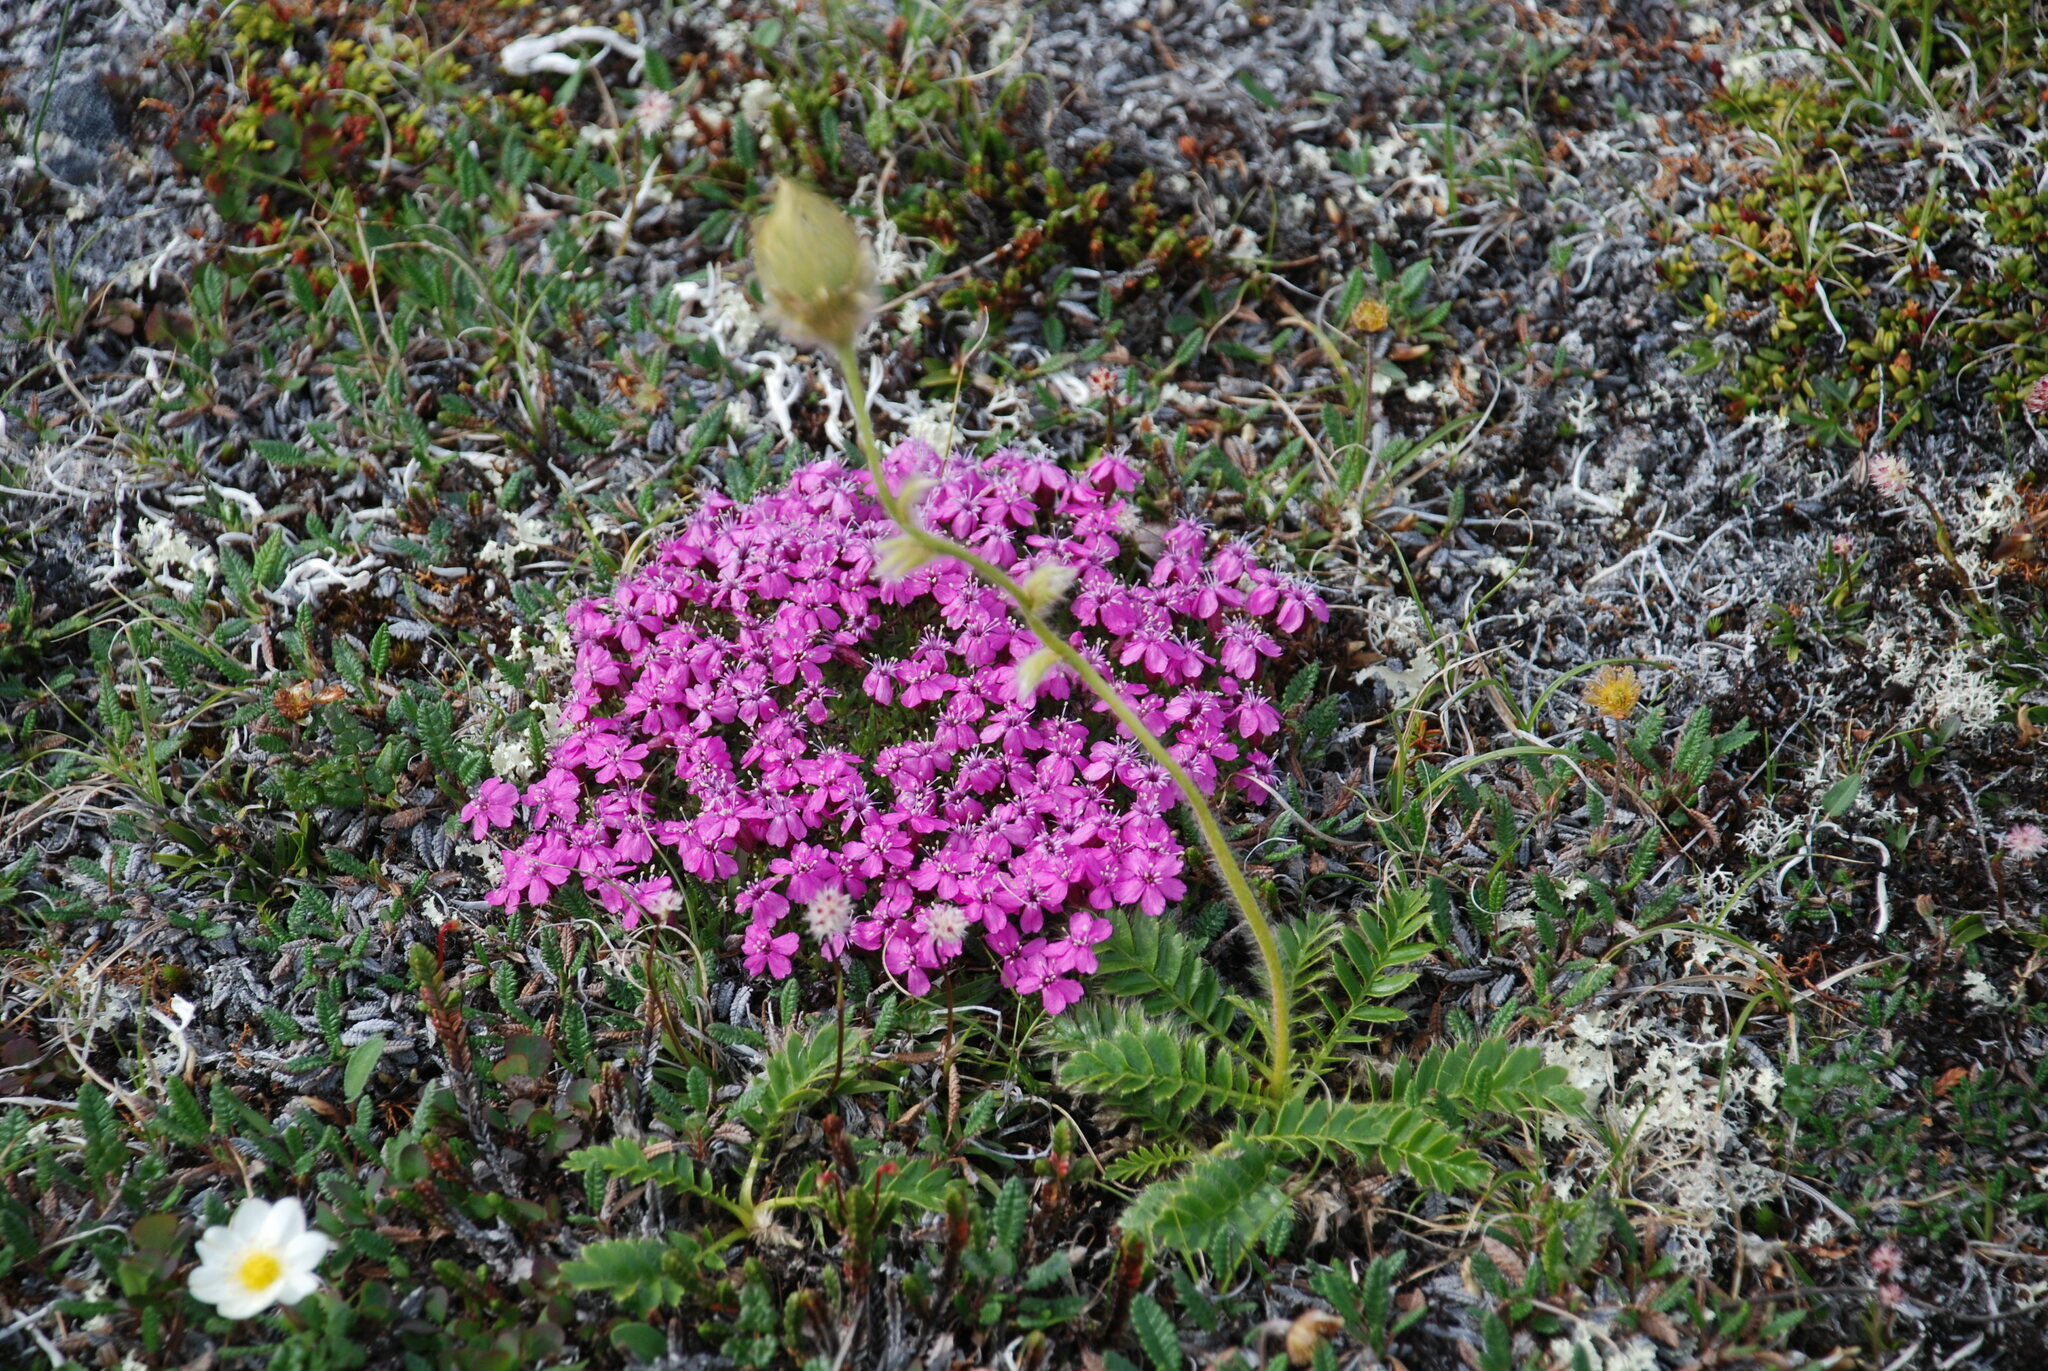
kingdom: Plantae
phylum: Tracheophyta
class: Magnoliopsida
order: Caryophyllales
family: Caryophyllaceae
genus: Silene
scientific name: Silene acaulis
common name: Moss campion
